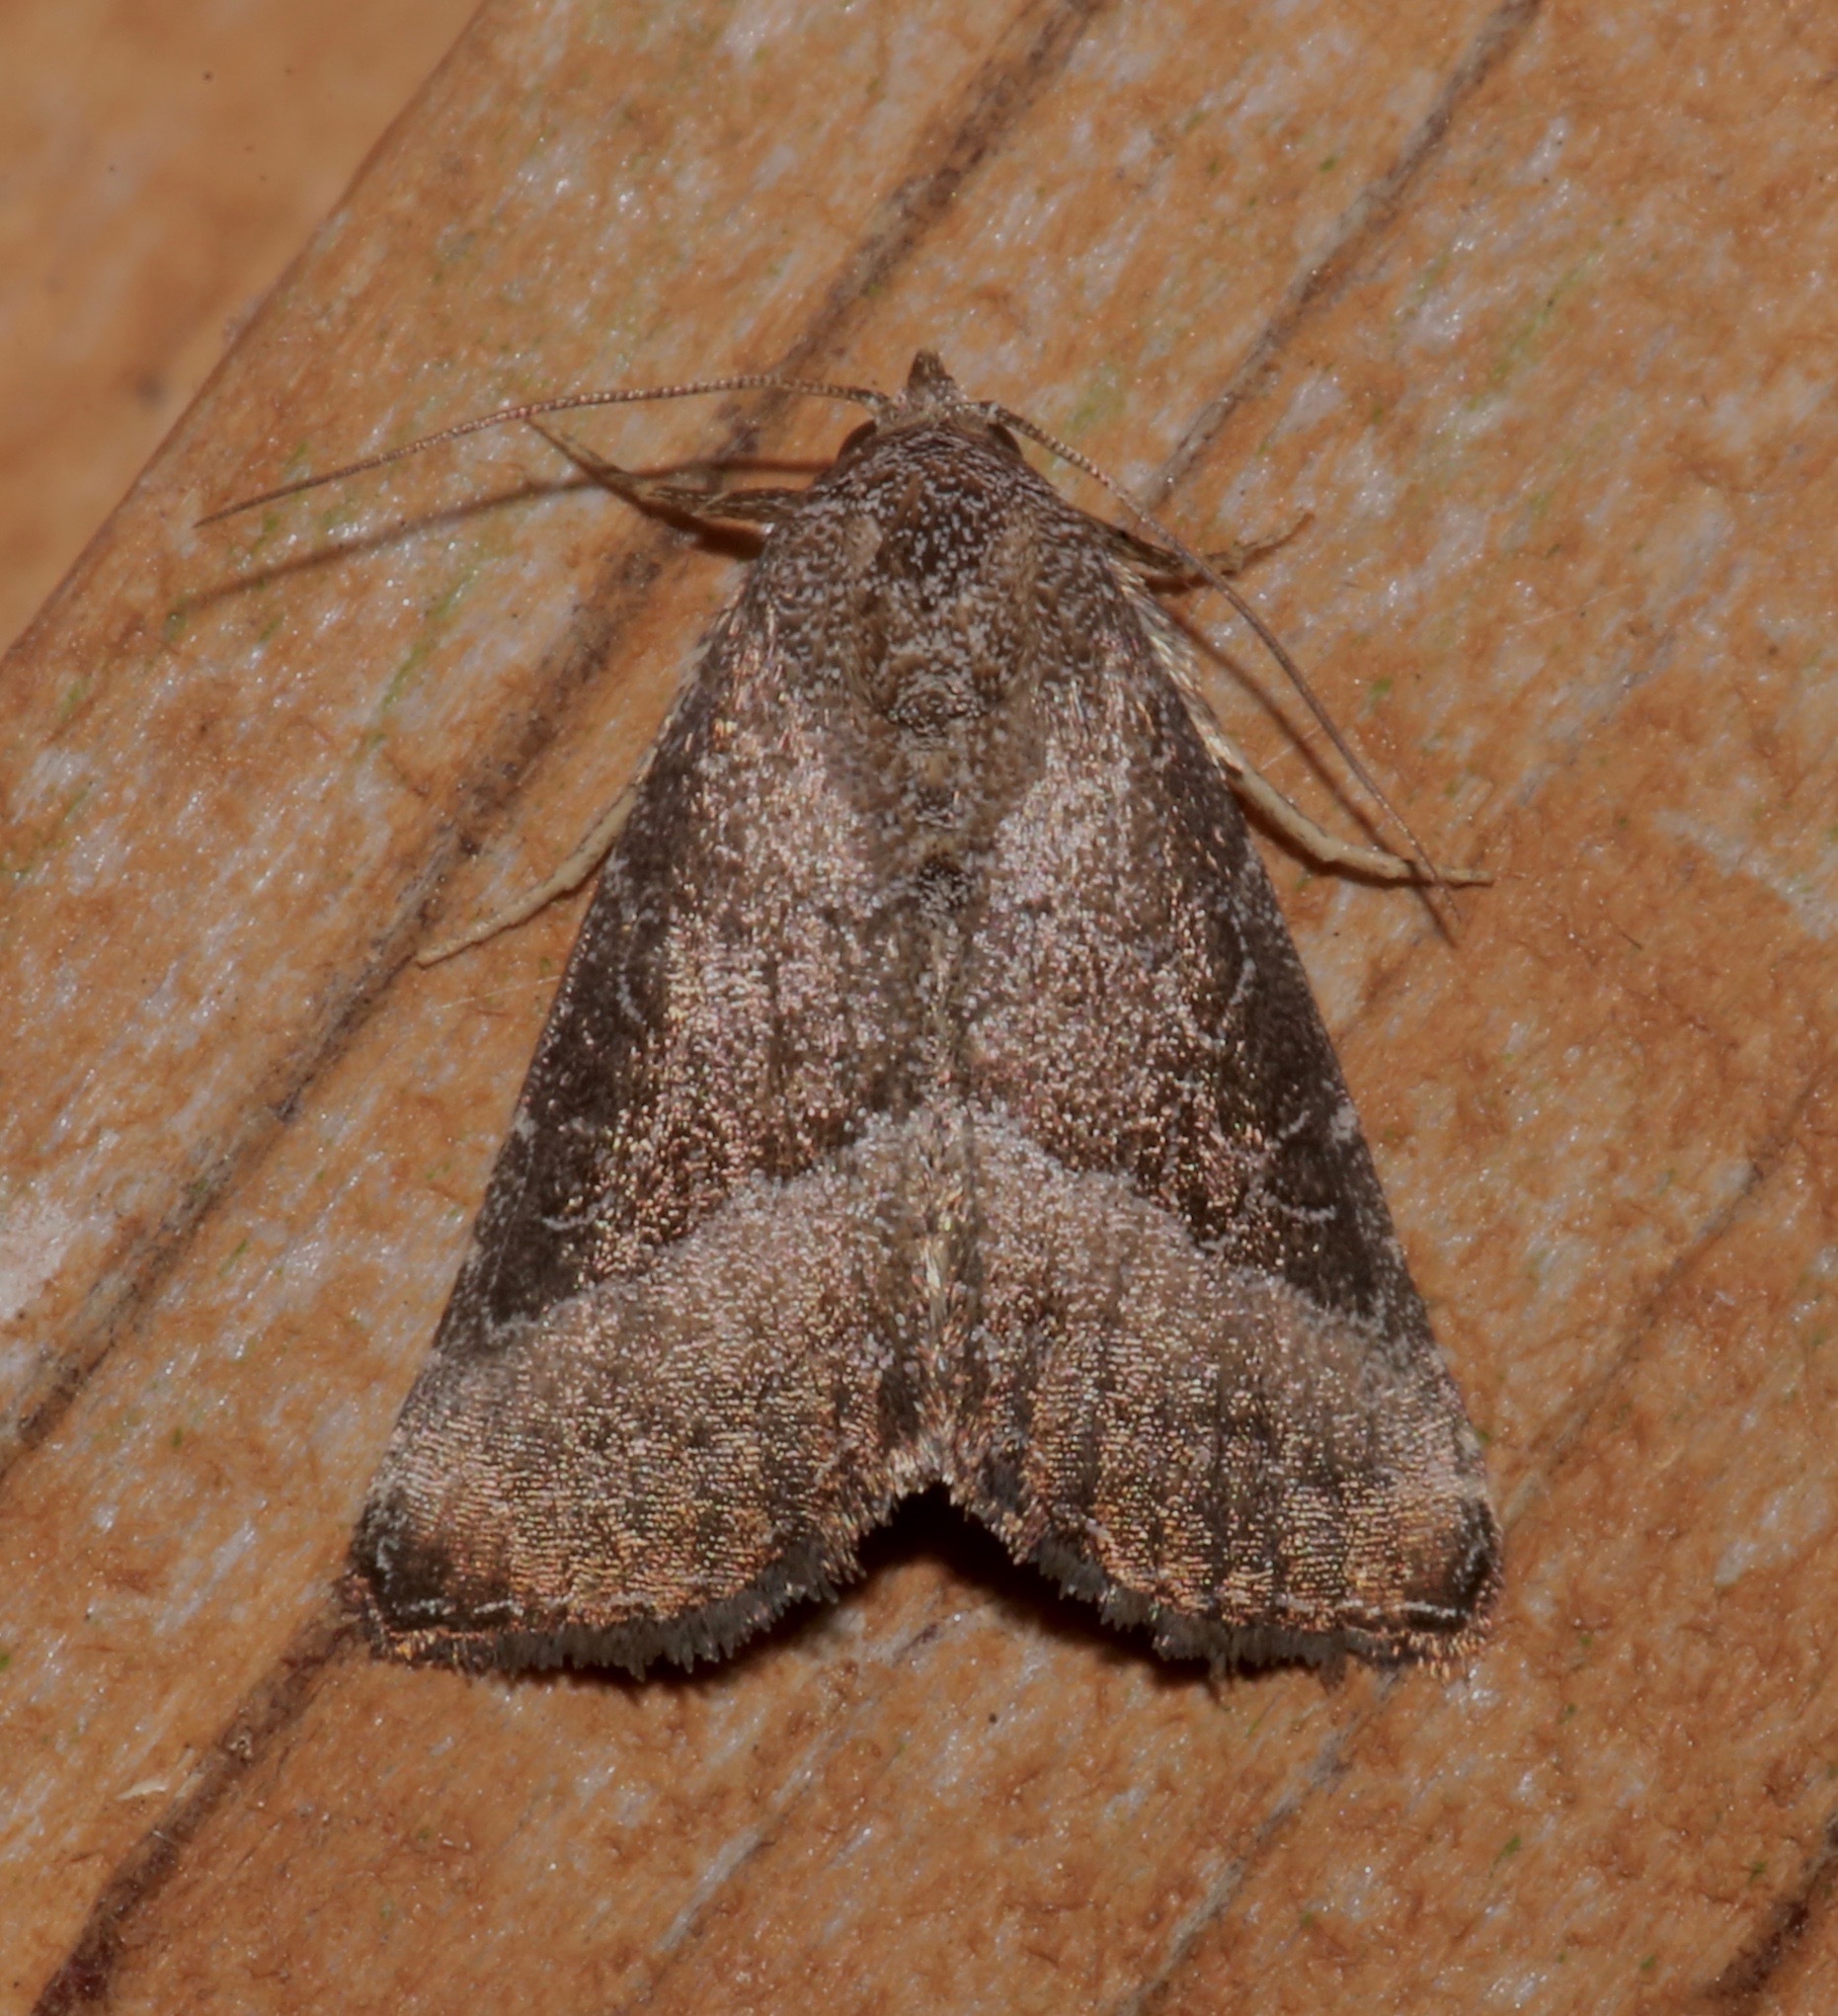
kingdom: Animalia
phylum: Arthropoda
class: Insecta
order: Lepidoptera
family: Noctuidae
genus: Ogdoconta
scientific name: Ogdoconta cinereola
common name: Common pinkband
